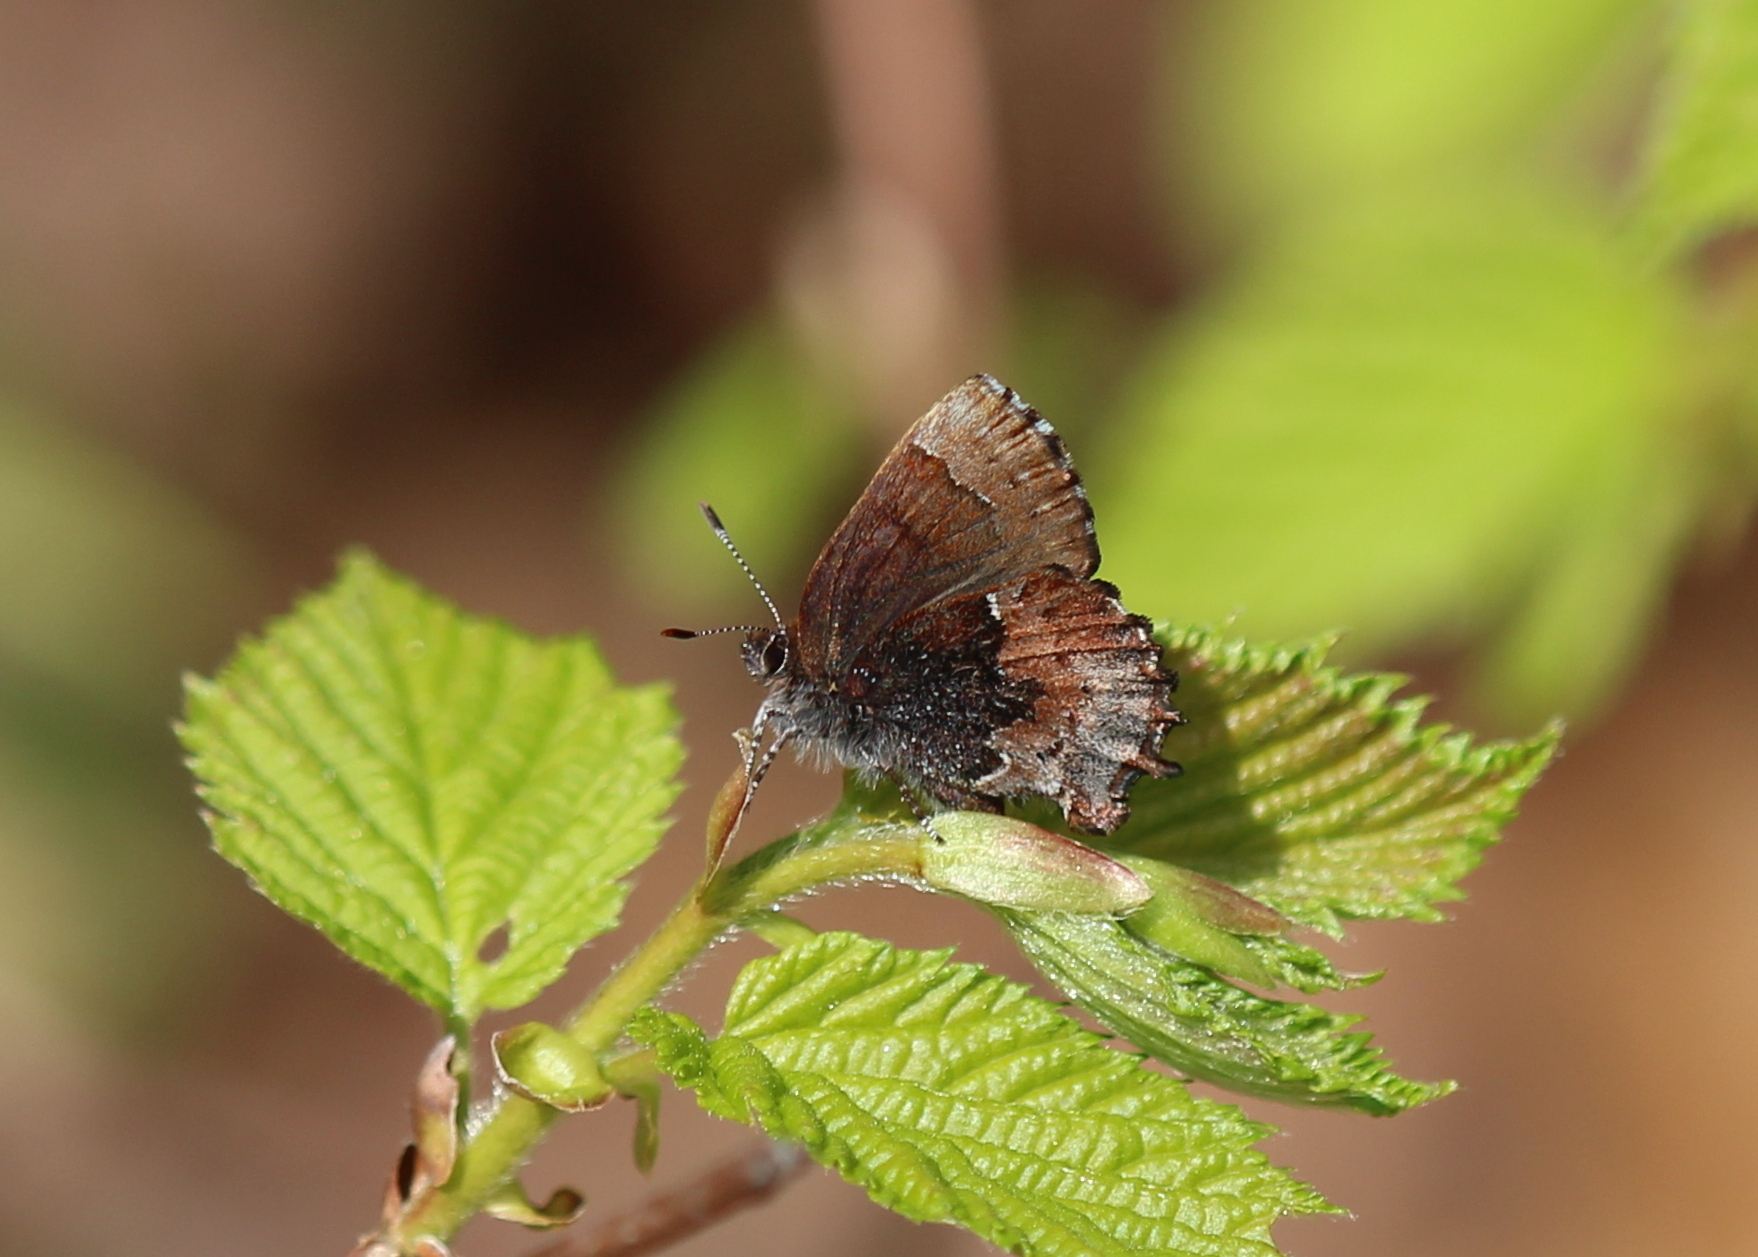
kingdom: Animalia
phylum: Arthropoda
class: Insecta
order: Lepidoptera
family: Lycaenidae
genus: Incisalia
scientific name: Incisalia henrici
